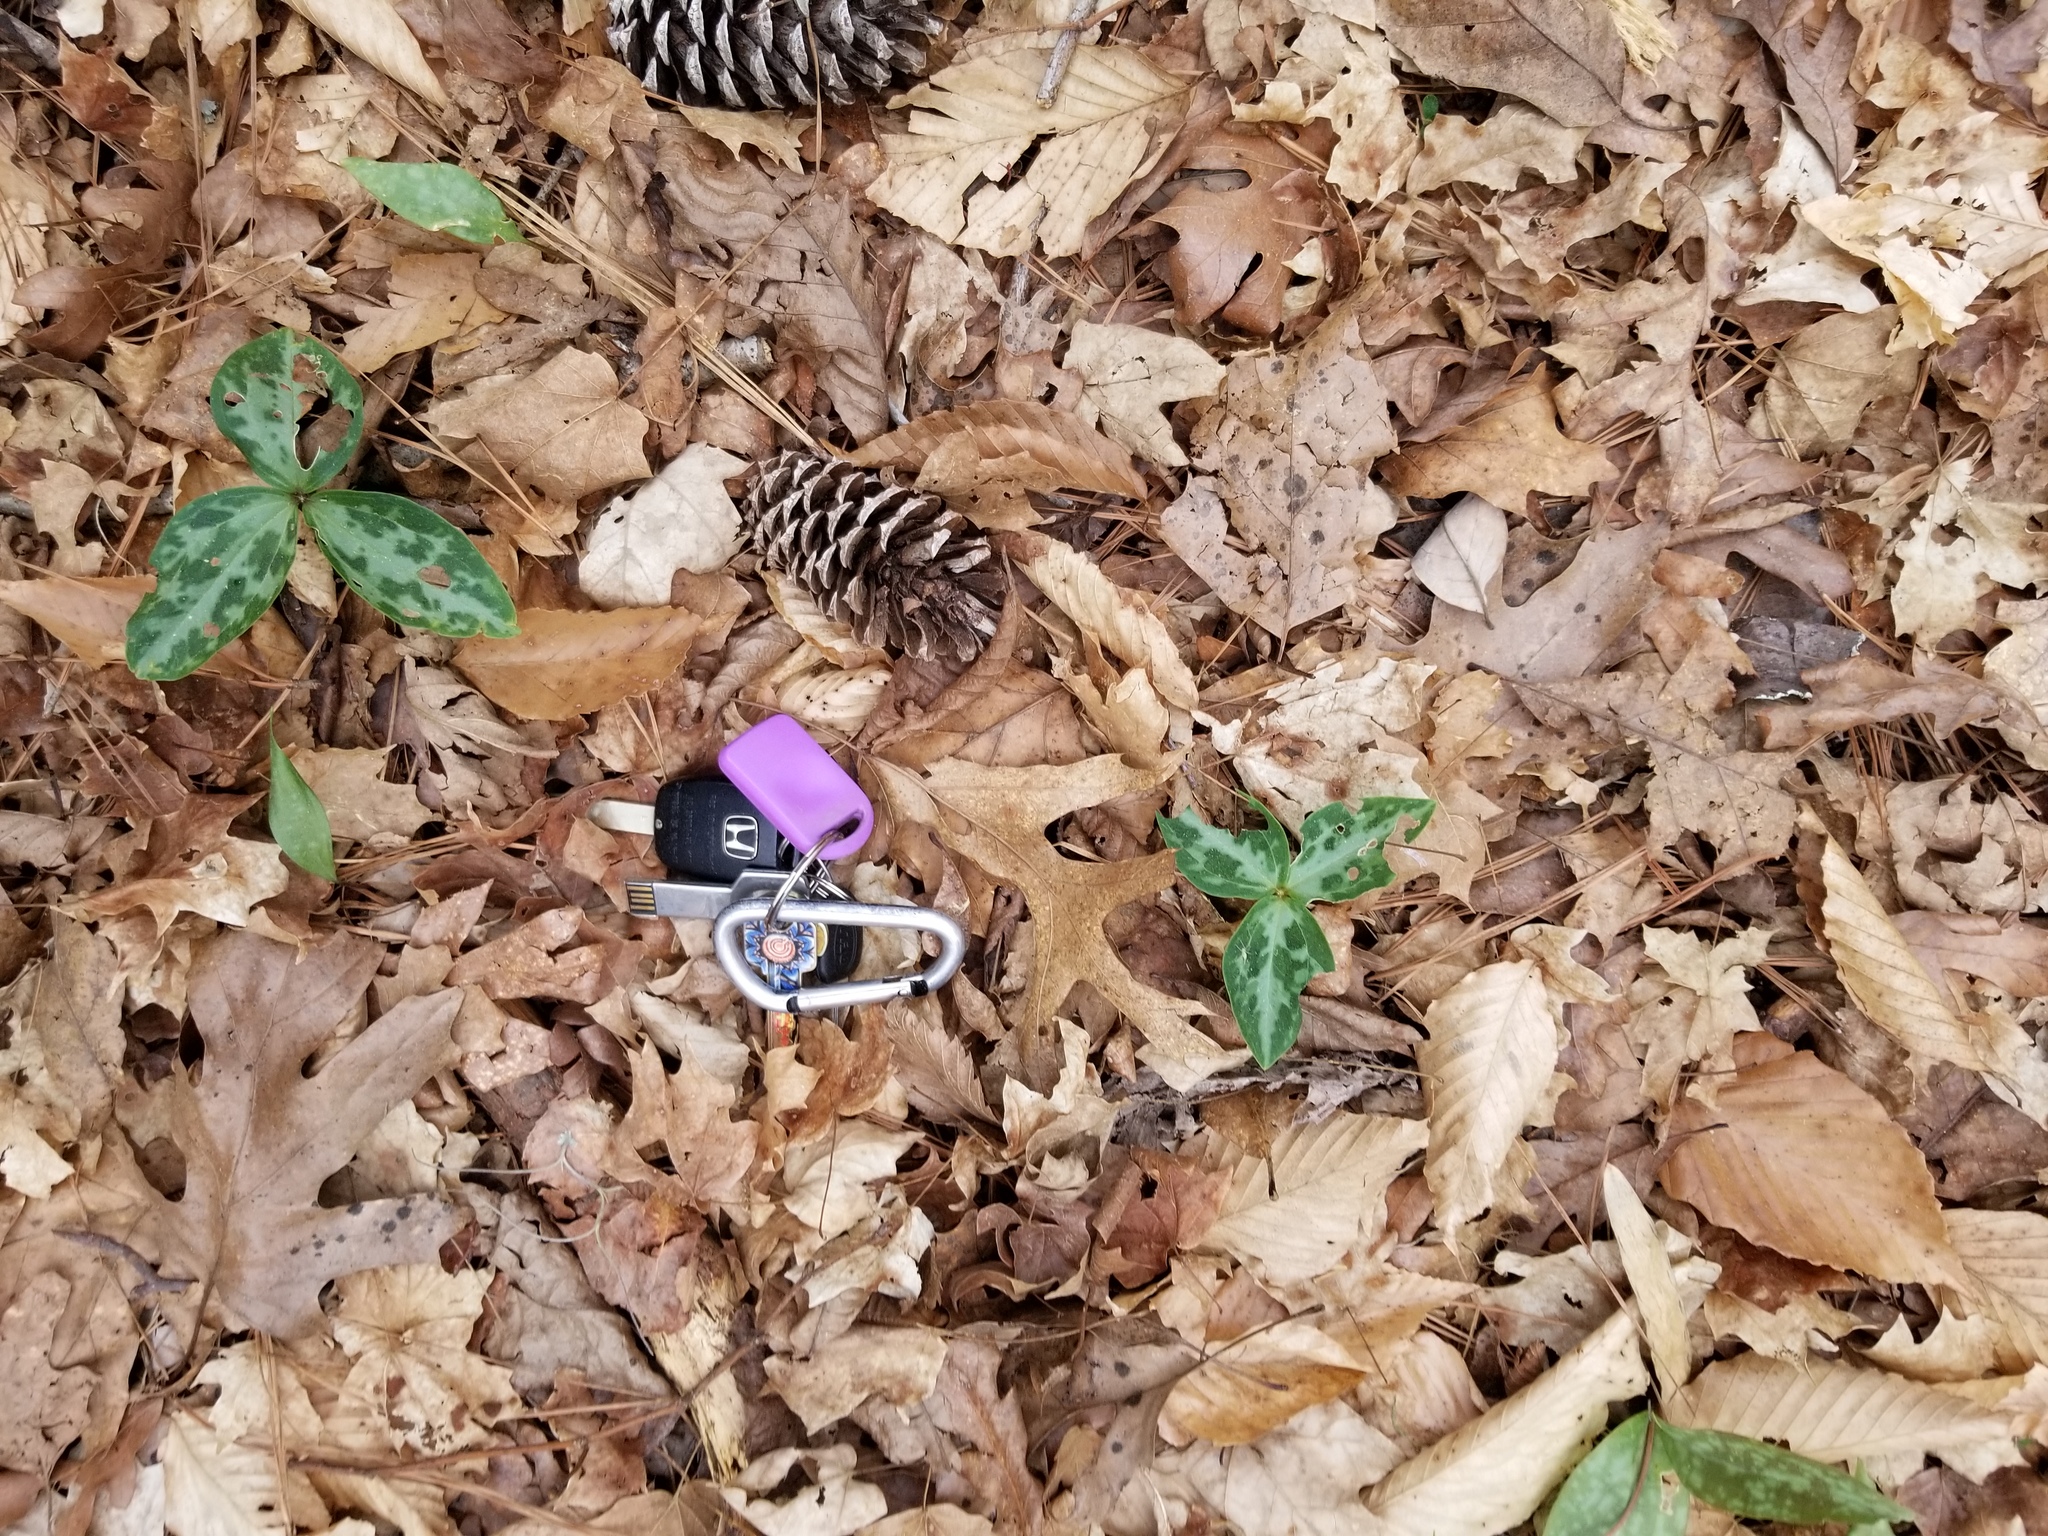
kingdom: Plantae
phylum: Tracheophyta
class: Liliopsida
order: Liliales
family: Melanthiaceae
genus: Trillium
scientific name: Trillium reliquum
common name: Relict trillium
